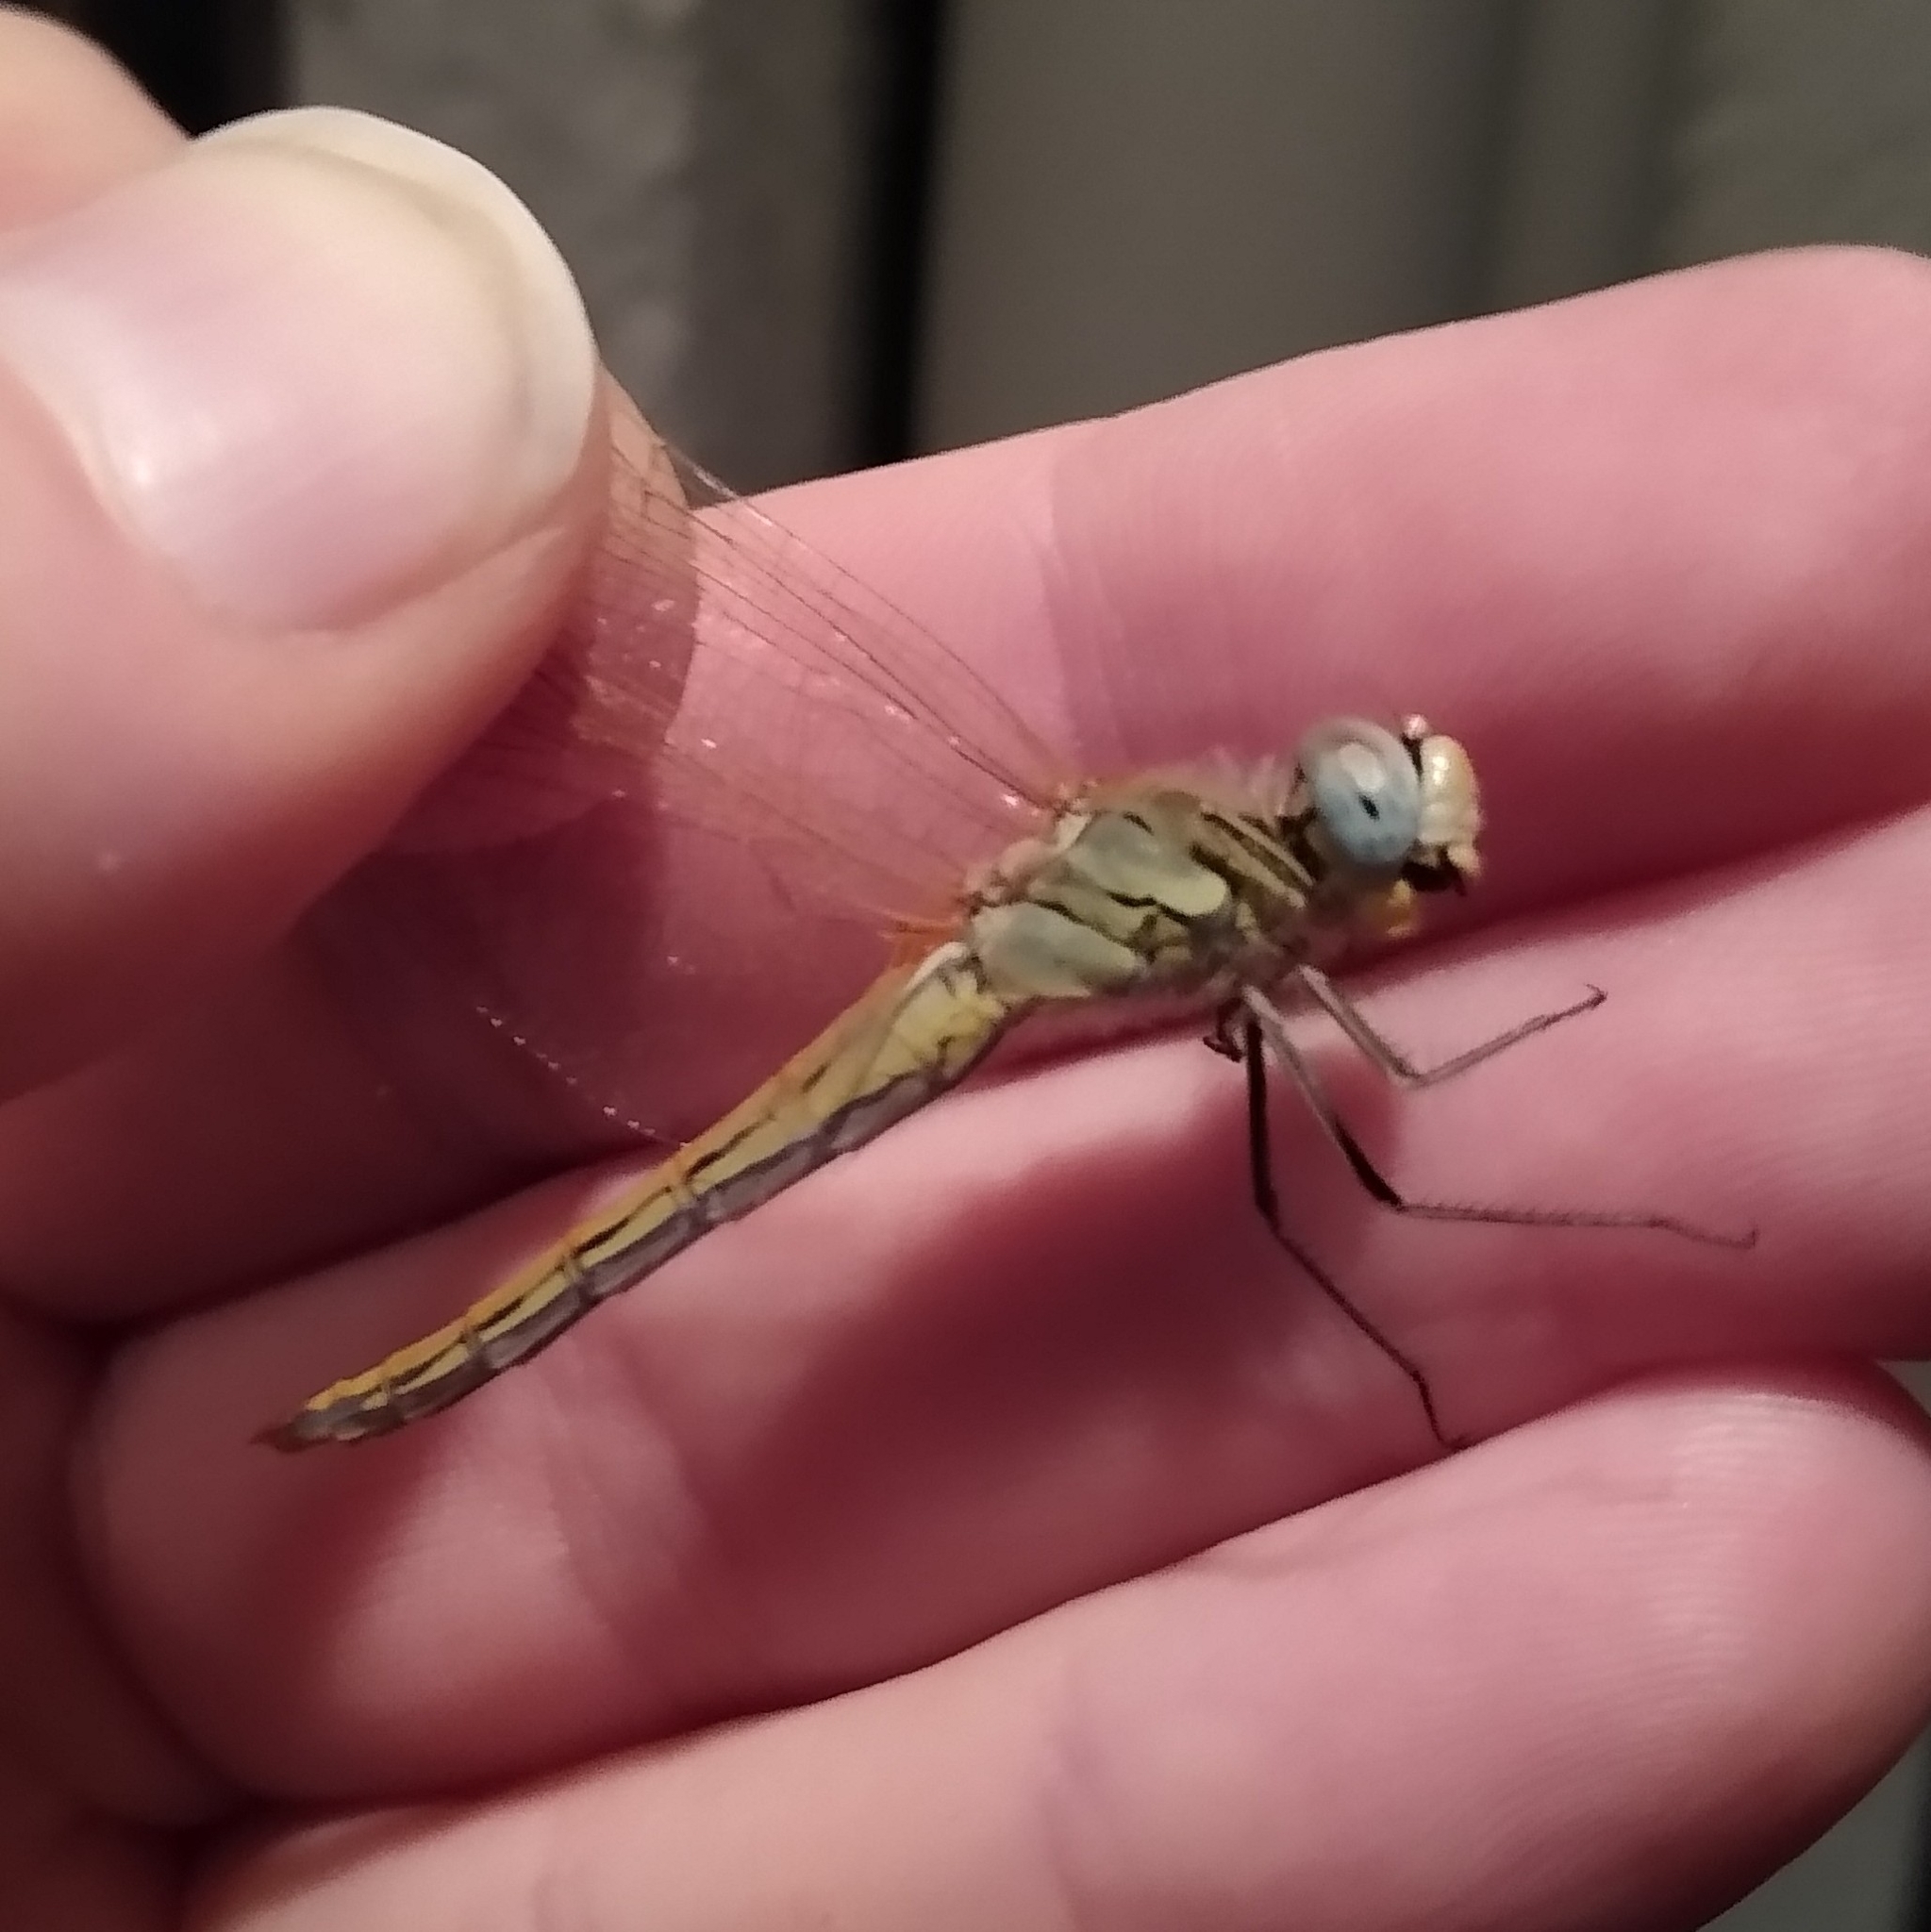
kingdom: Animalia
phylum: Arthropoda
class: Insecta
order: Odonata
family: Libellulidae
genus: Sympetrum
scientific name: Sympetrum fonscolombii
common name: Red-veined darter
